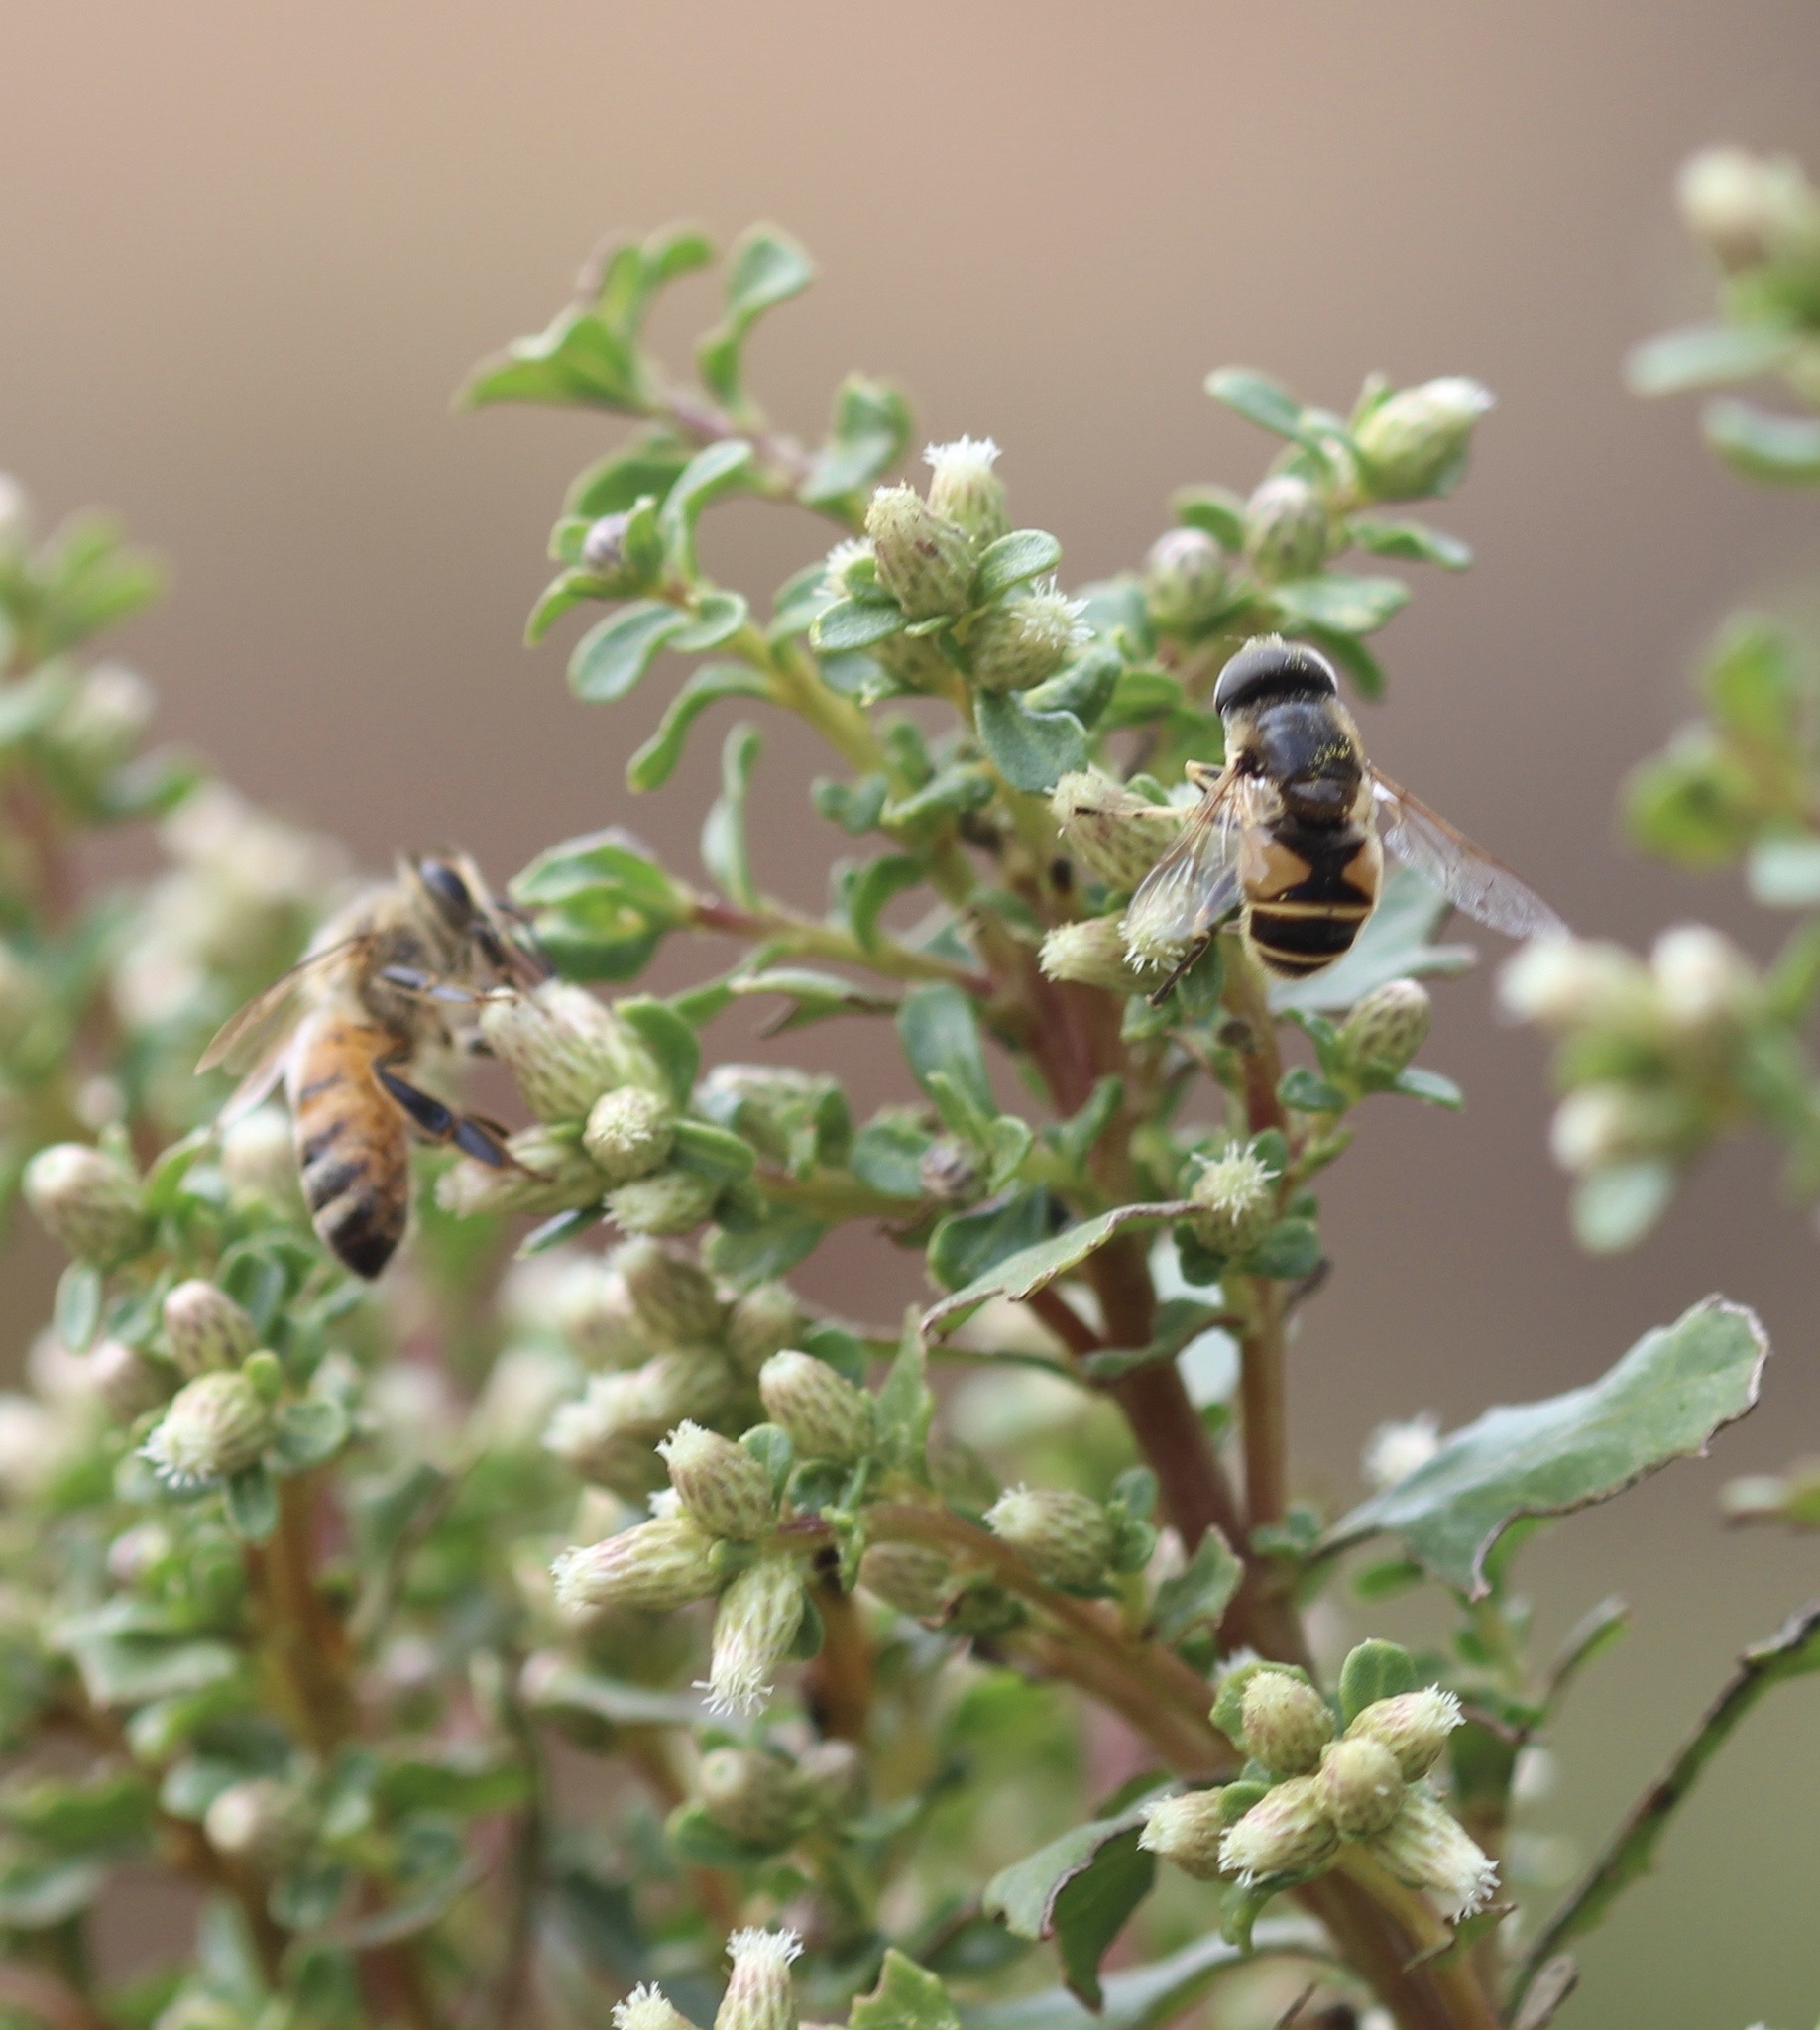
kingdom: Animalia
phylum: Arthropoda
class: Insecta
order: Hymenoptera
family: Apidae
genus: Apis
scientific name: Apis mellifera
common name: Honey bee
